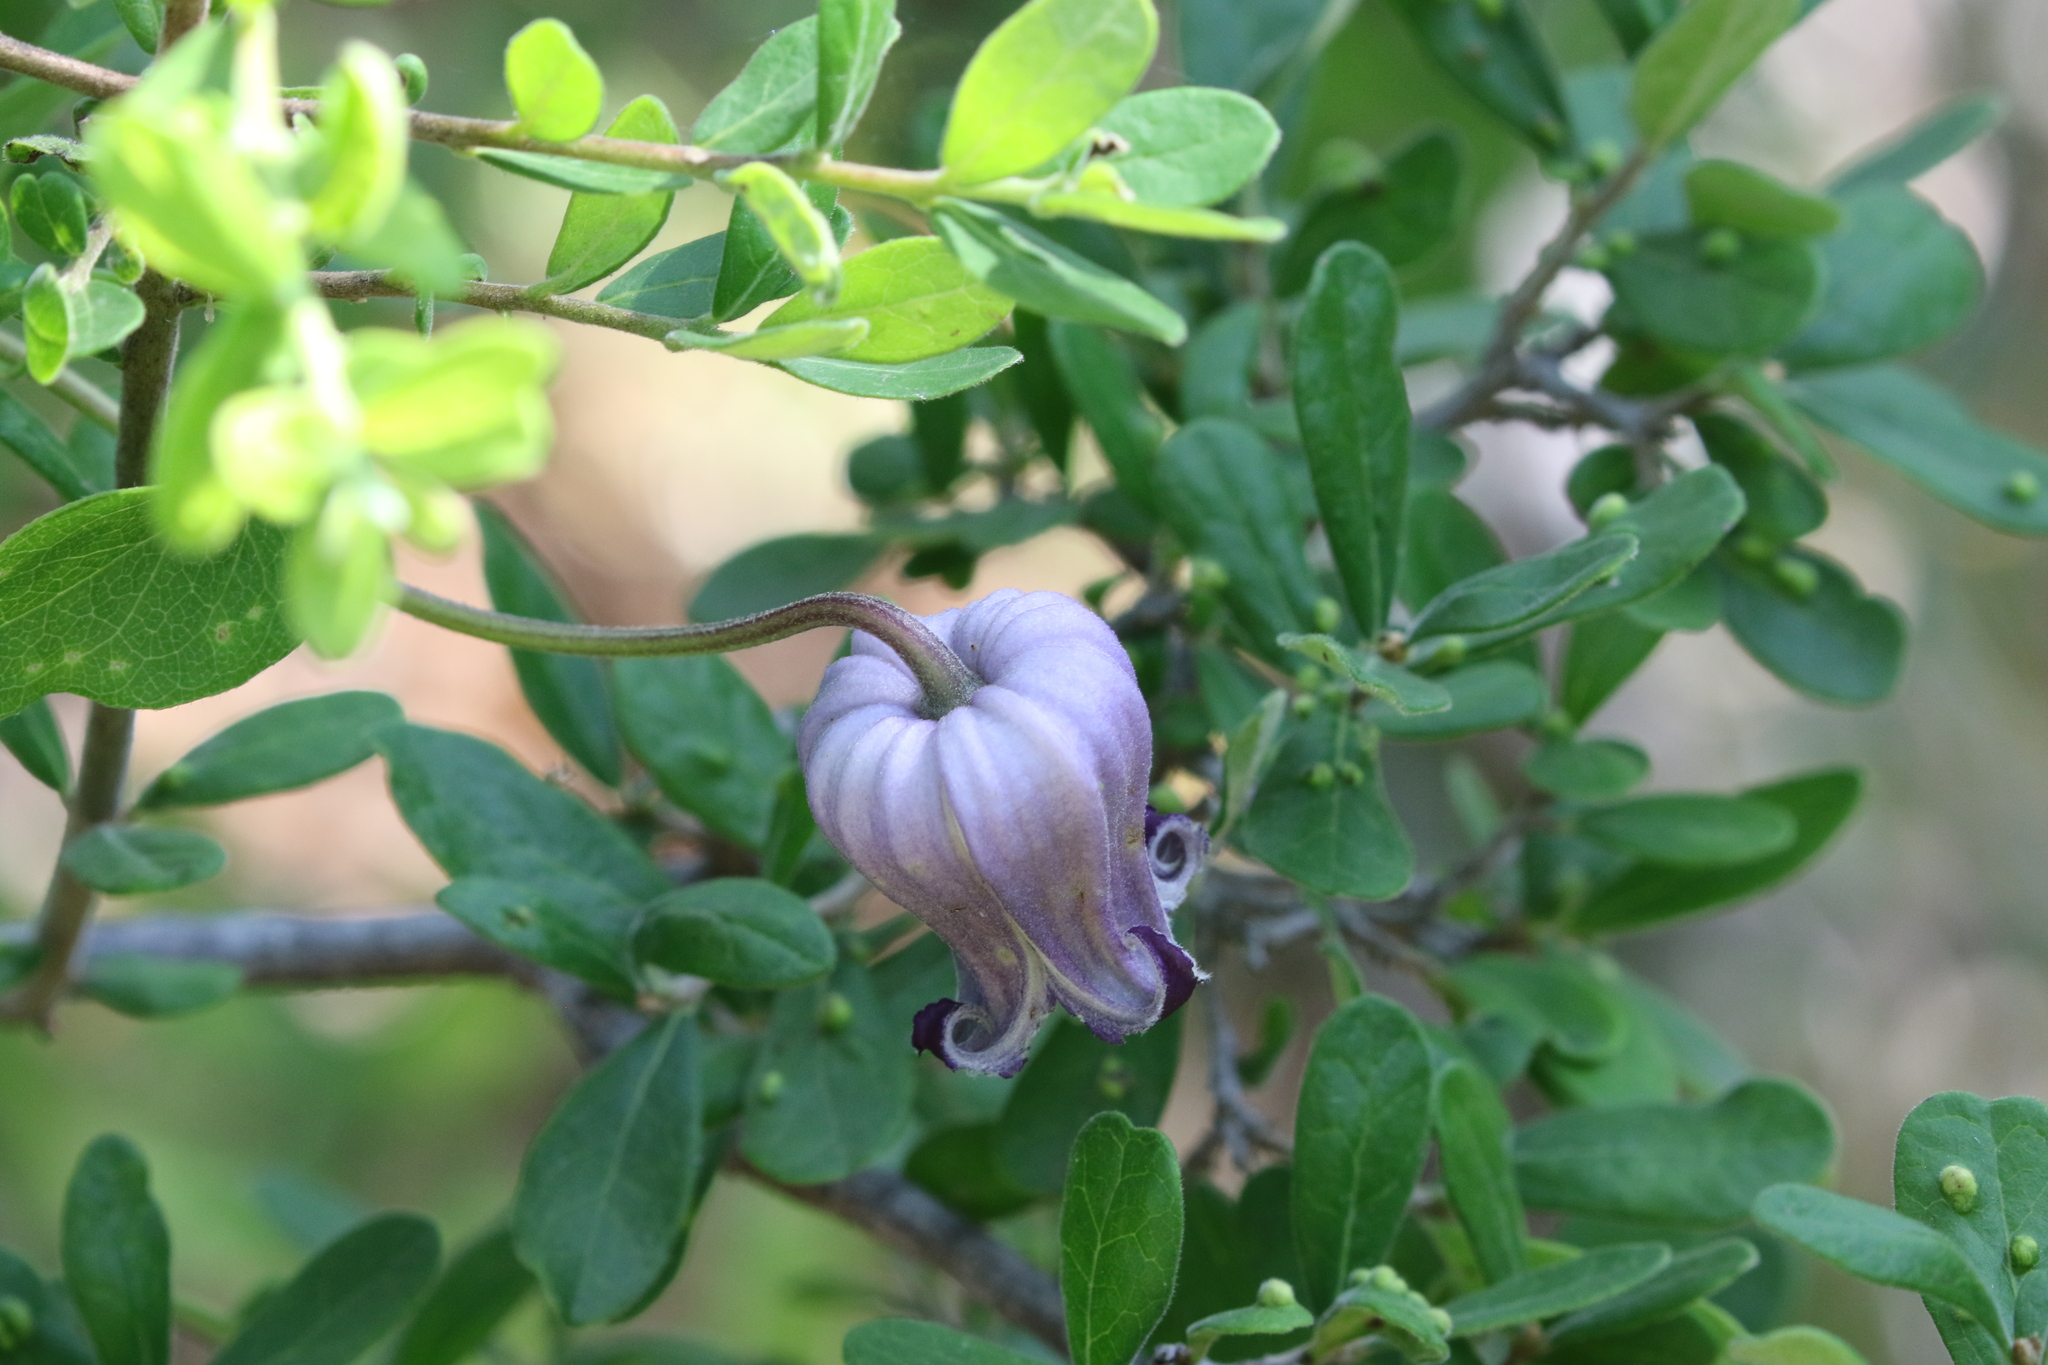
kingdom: Plantae
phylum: Tracheophyta
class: Magnoliopsida
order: Ranunculales
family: Ranunculaceae
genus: Clematis
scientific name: Clematis pitcheri
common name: Bellflower clematis
